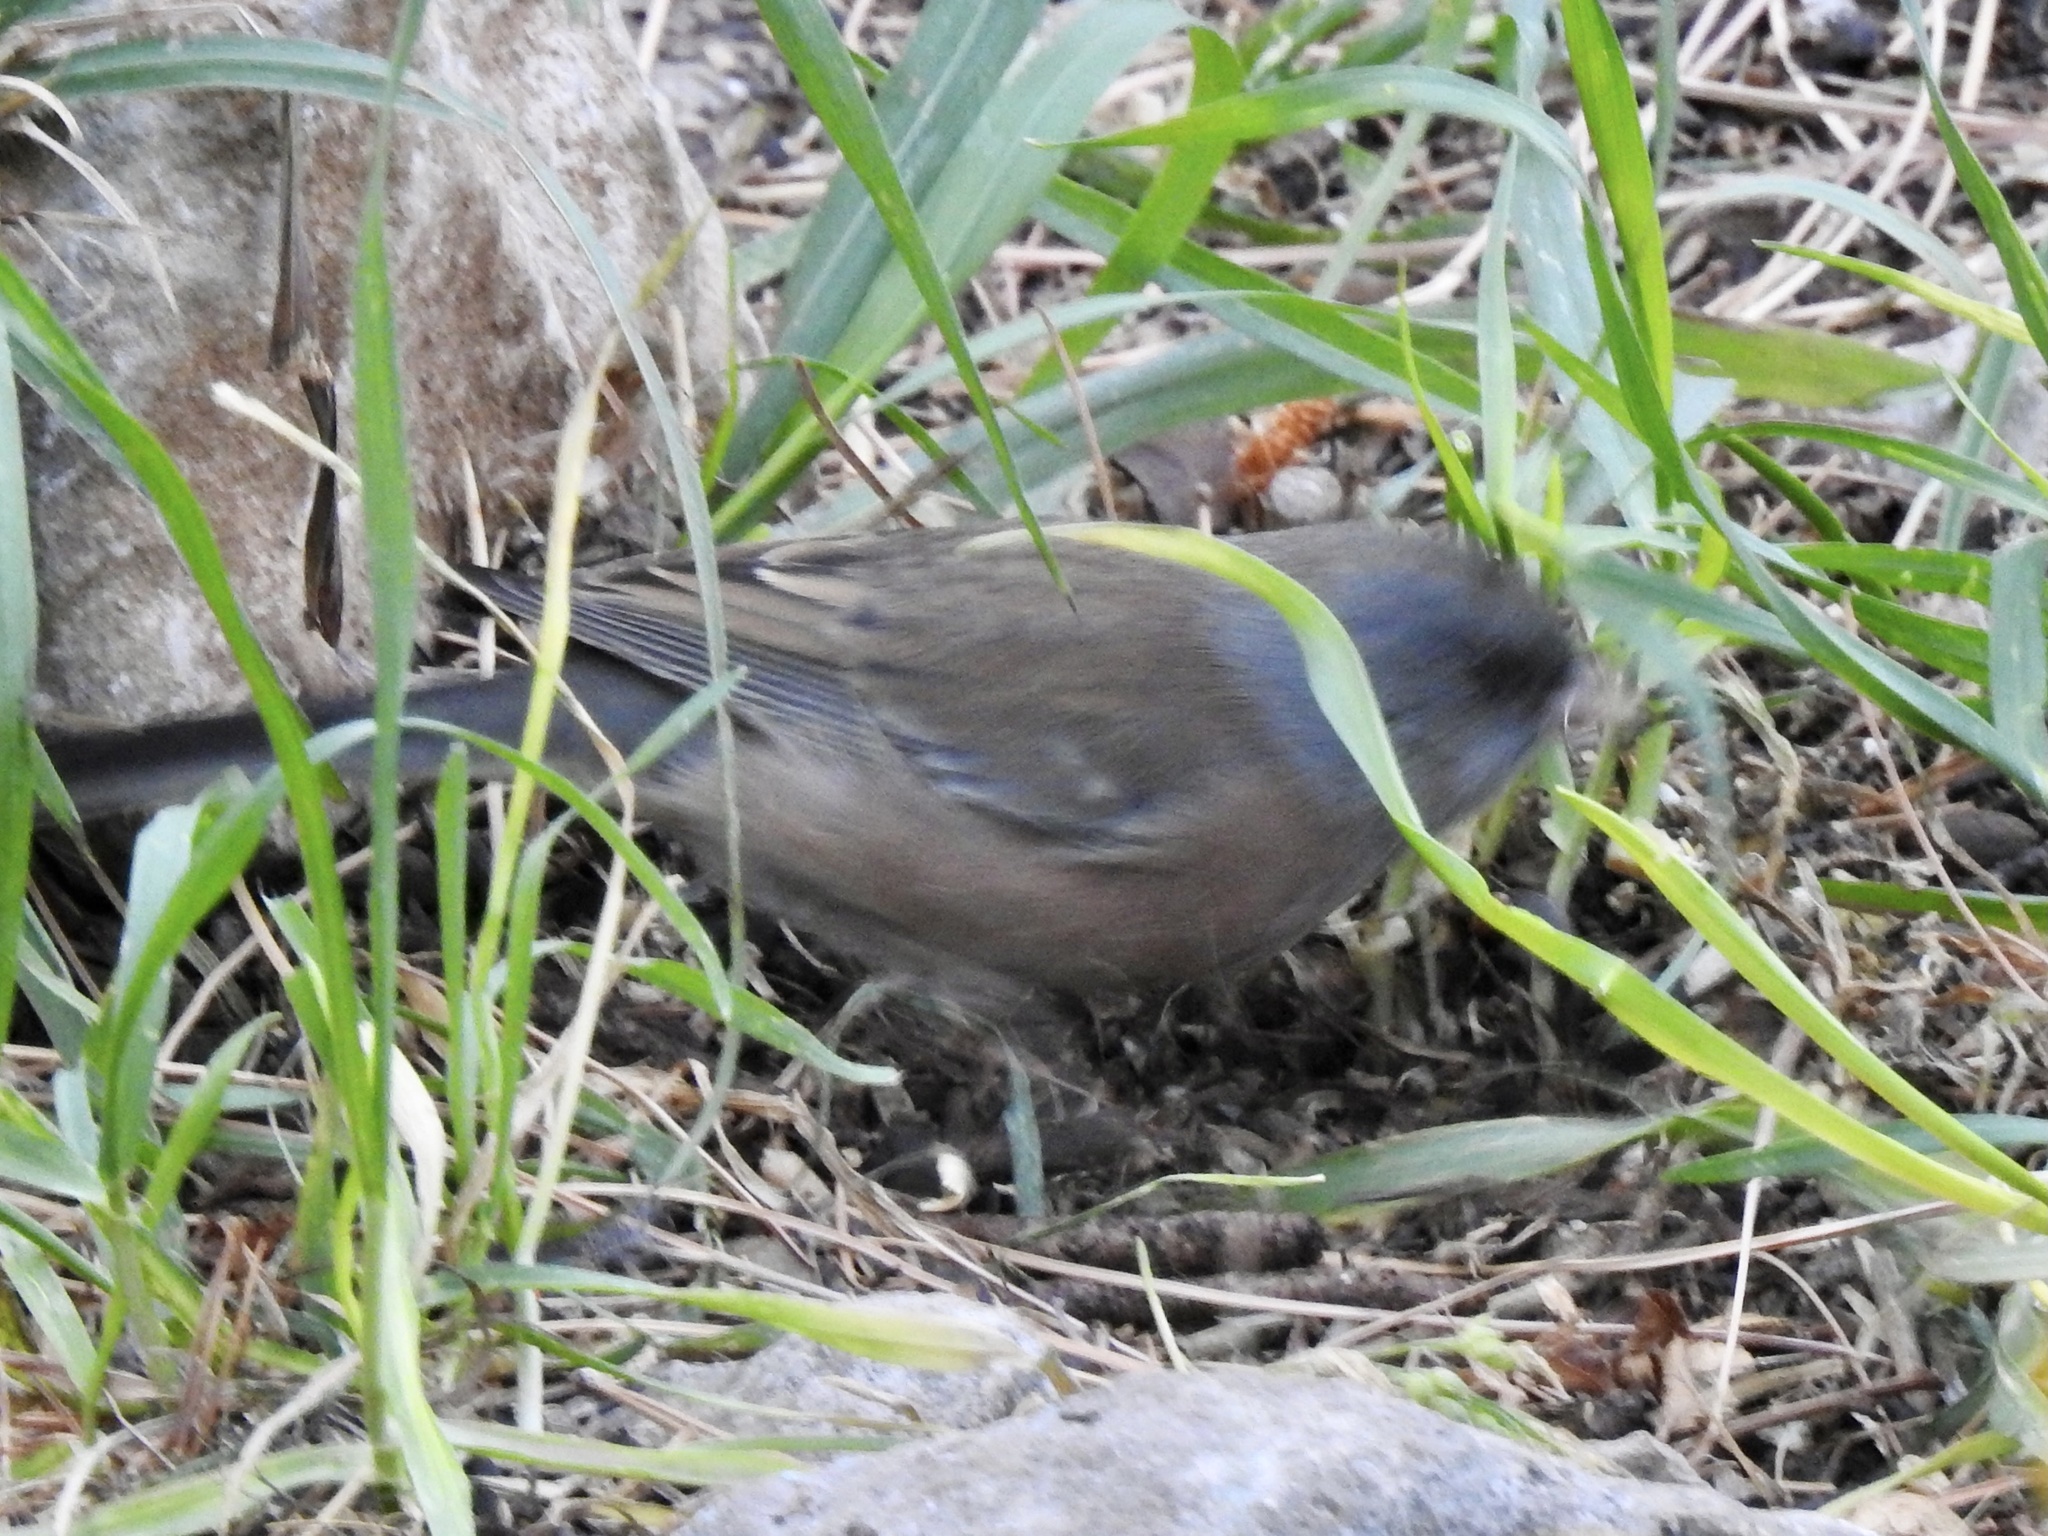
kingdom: Animalia
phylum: Chordata
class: Aves
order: Passeriformes
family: Passerellidae
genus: Junco
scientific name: Junco hyemalis
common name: Dark-eyed junco
